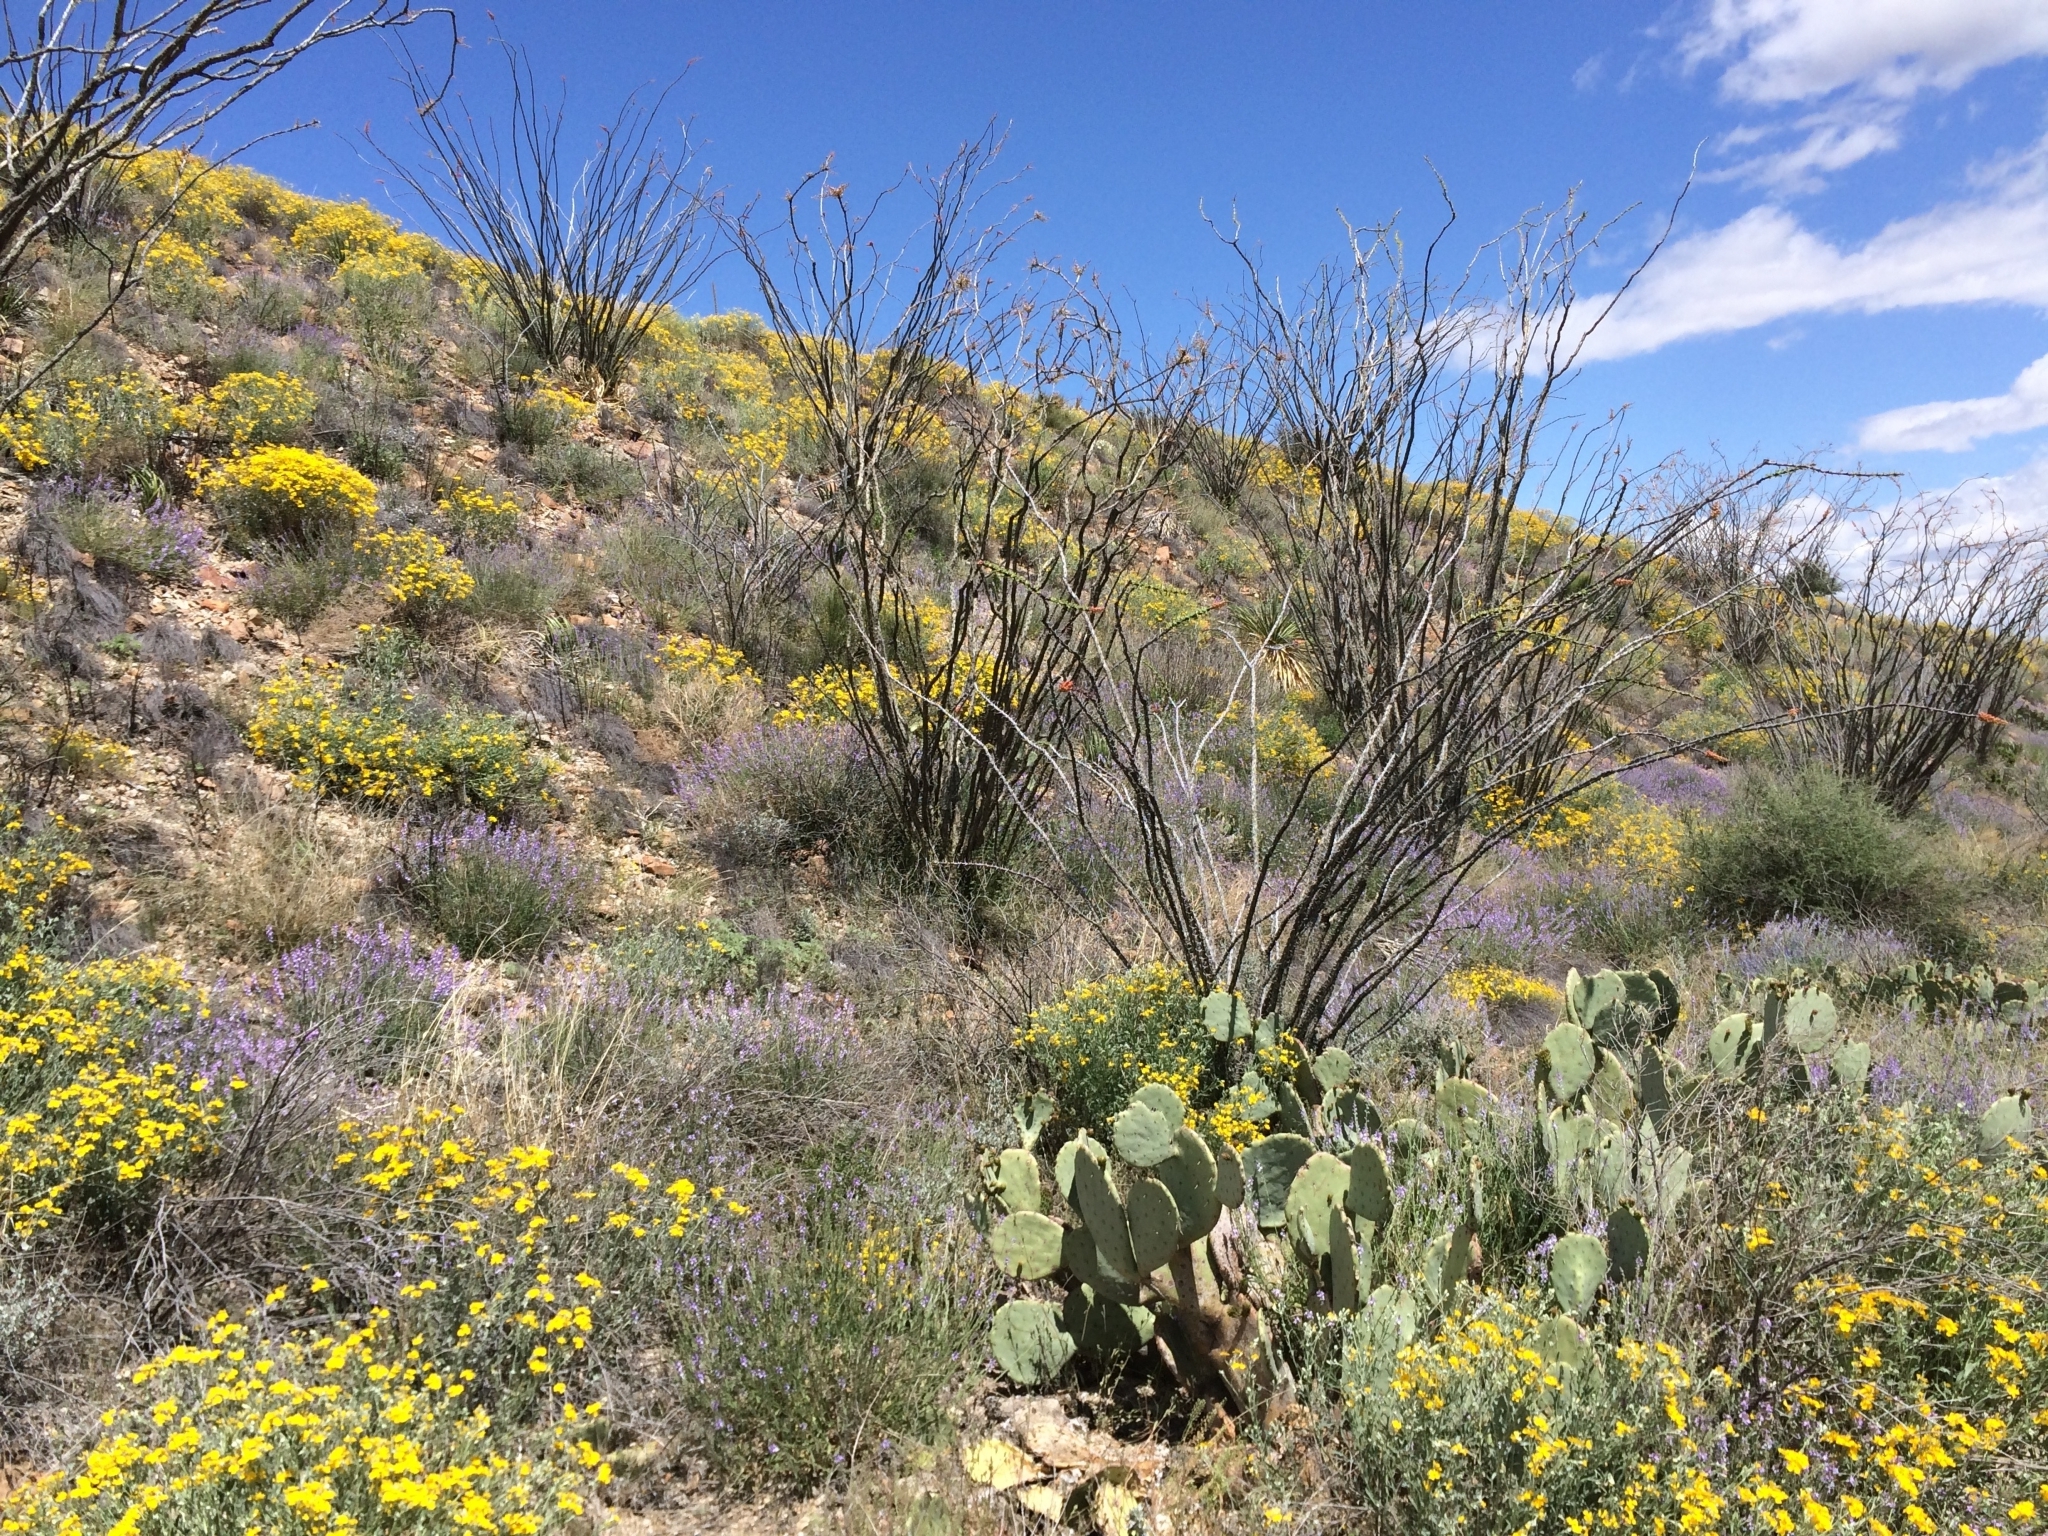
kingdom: Plantae
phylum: Tracheophyta
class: Magnoliopsida
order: Ericales
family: Fouquieriaceae
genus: Fouquieria
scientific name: Fouquieria splendens
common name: Vine-cactus
